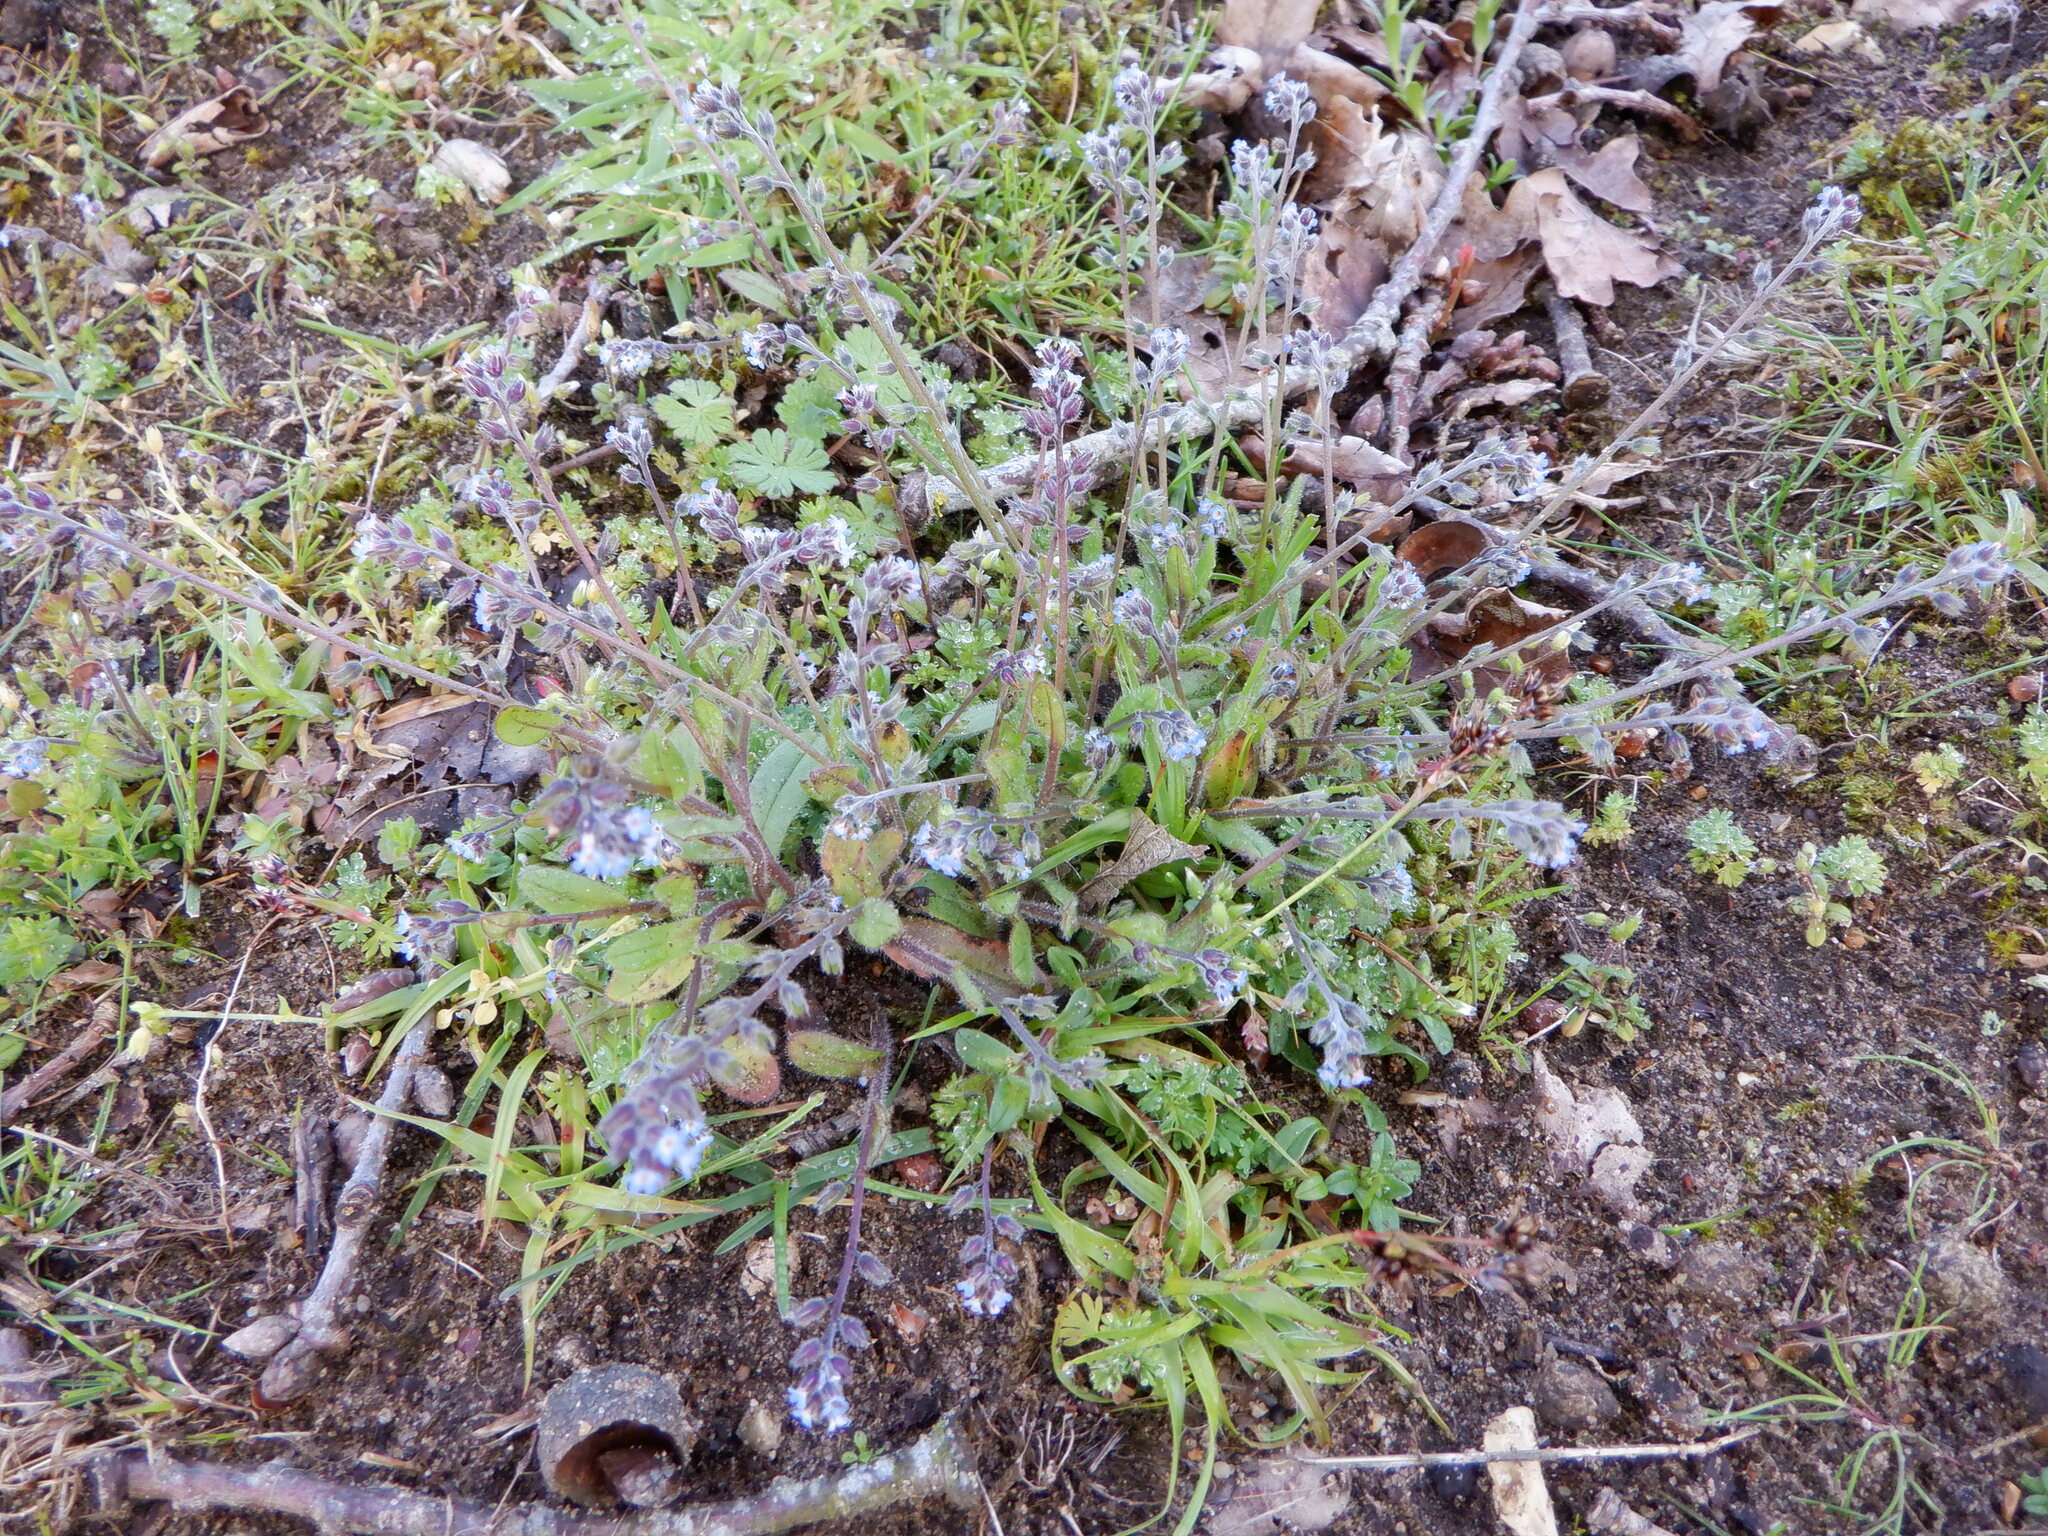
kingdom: Plantae
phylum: Tracheophyta
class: Magnoliopsida
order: Boraginales
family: Boraginaceae
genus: Myosotis
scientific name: Myosotis ramosissima
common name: Early forget-me-not
